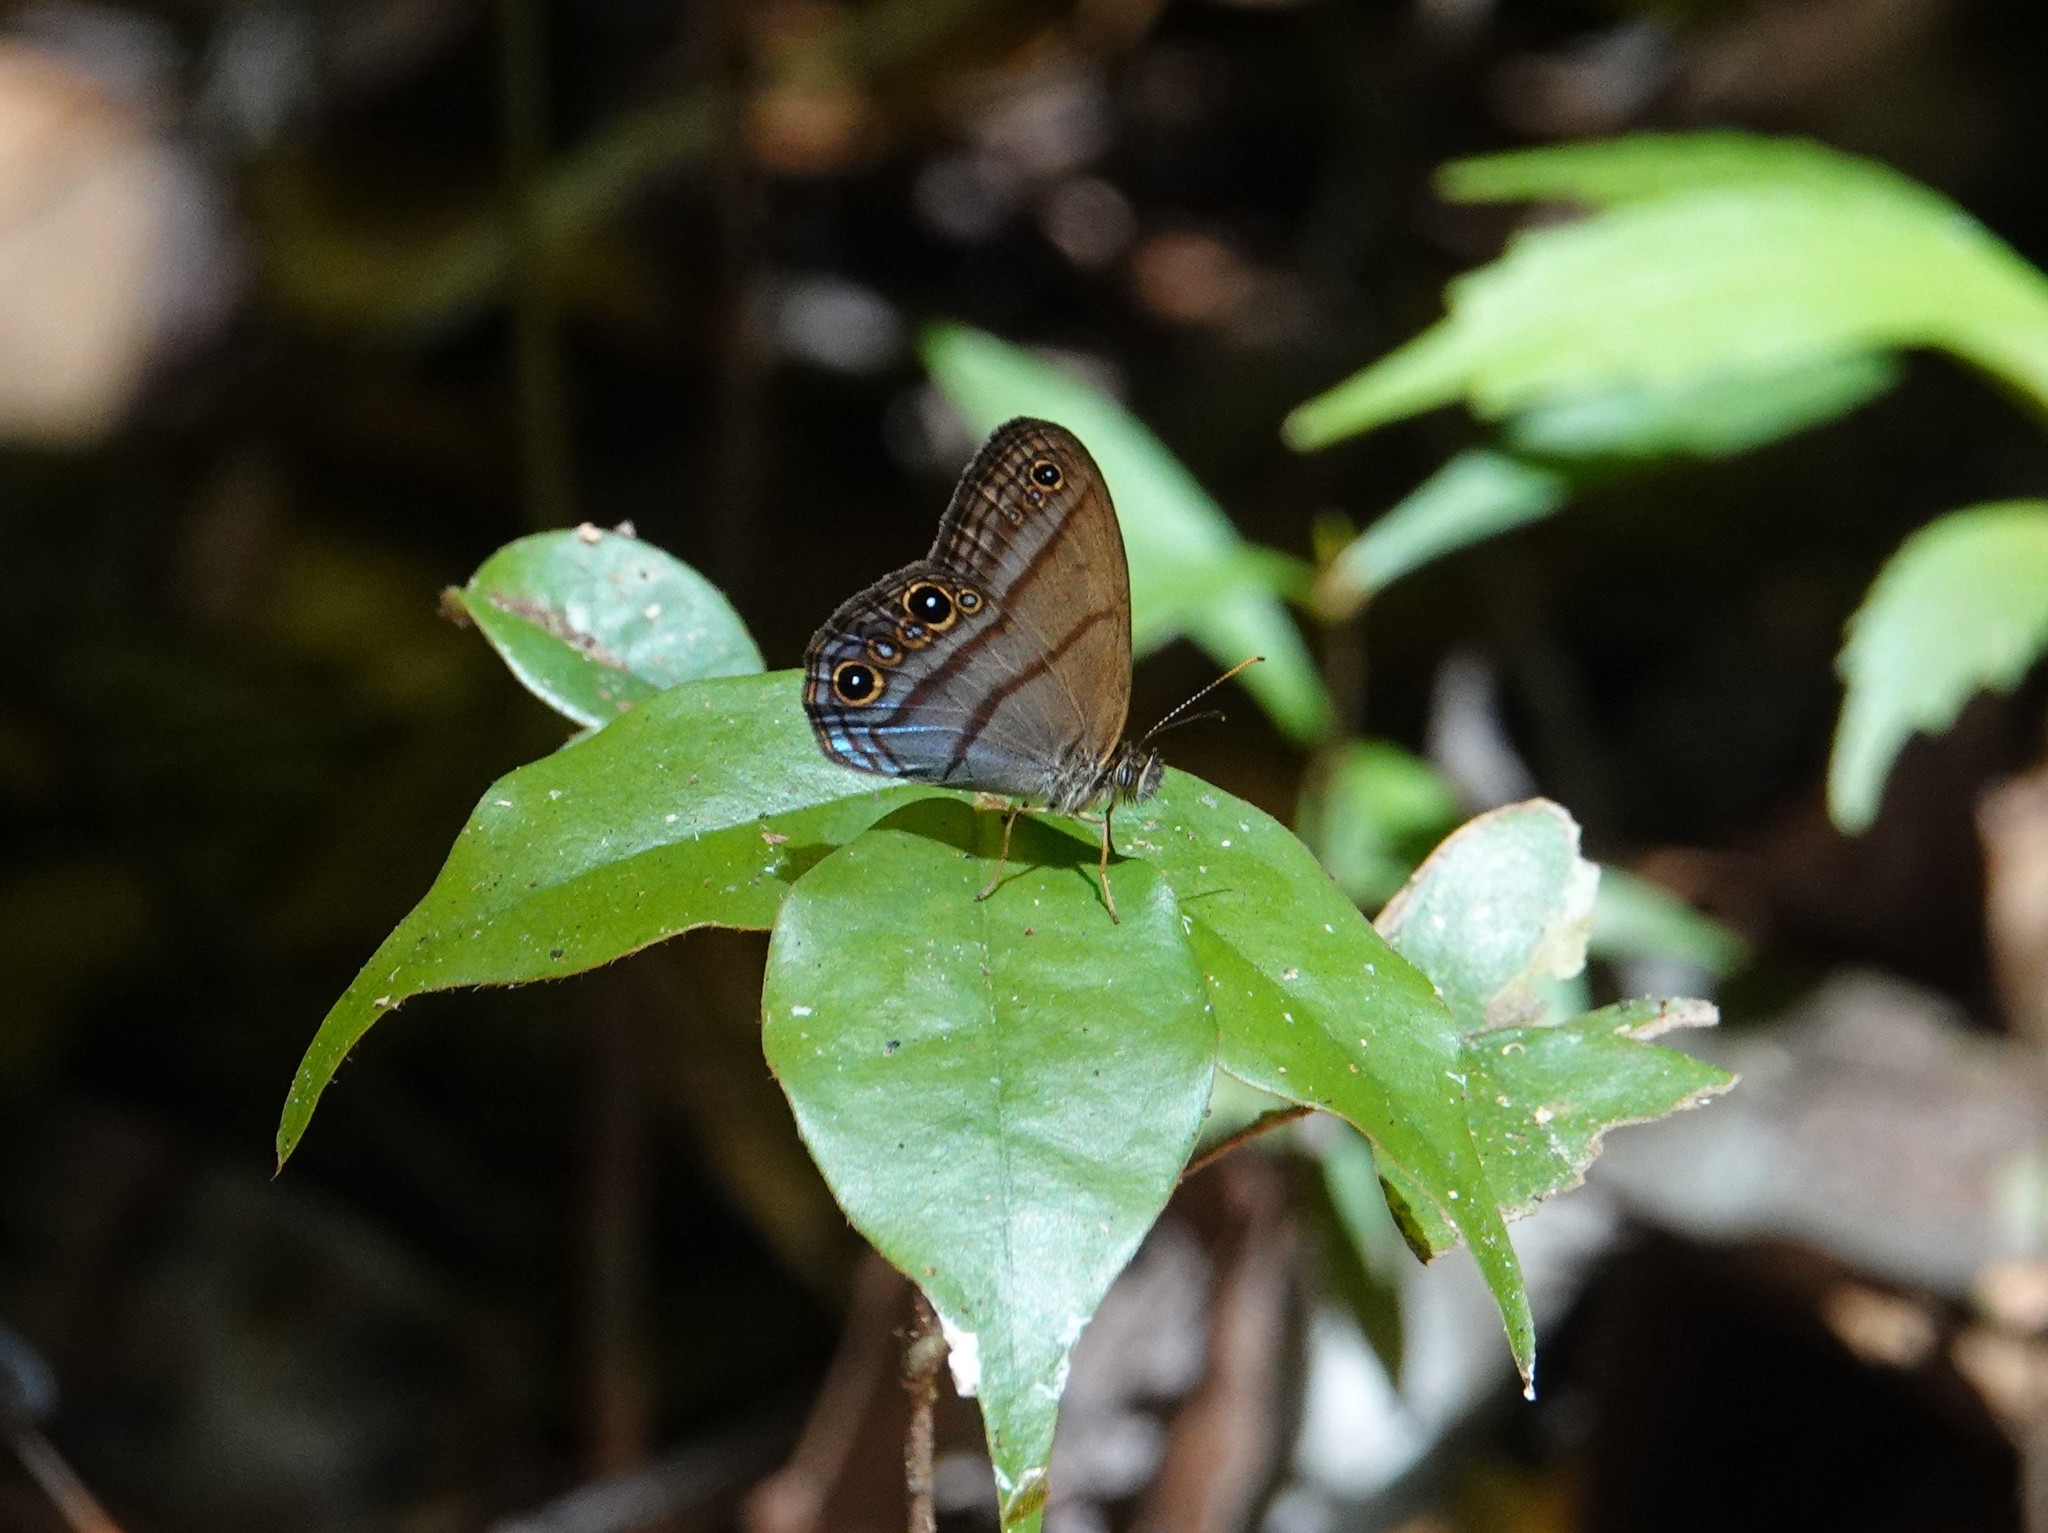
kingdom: Animalia
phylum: Arthropoda
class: Insecta
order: Lepidoptera
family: Nymphalidae
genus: Amiga
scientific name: Amiga arnaca
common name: Blue-topped satyr
